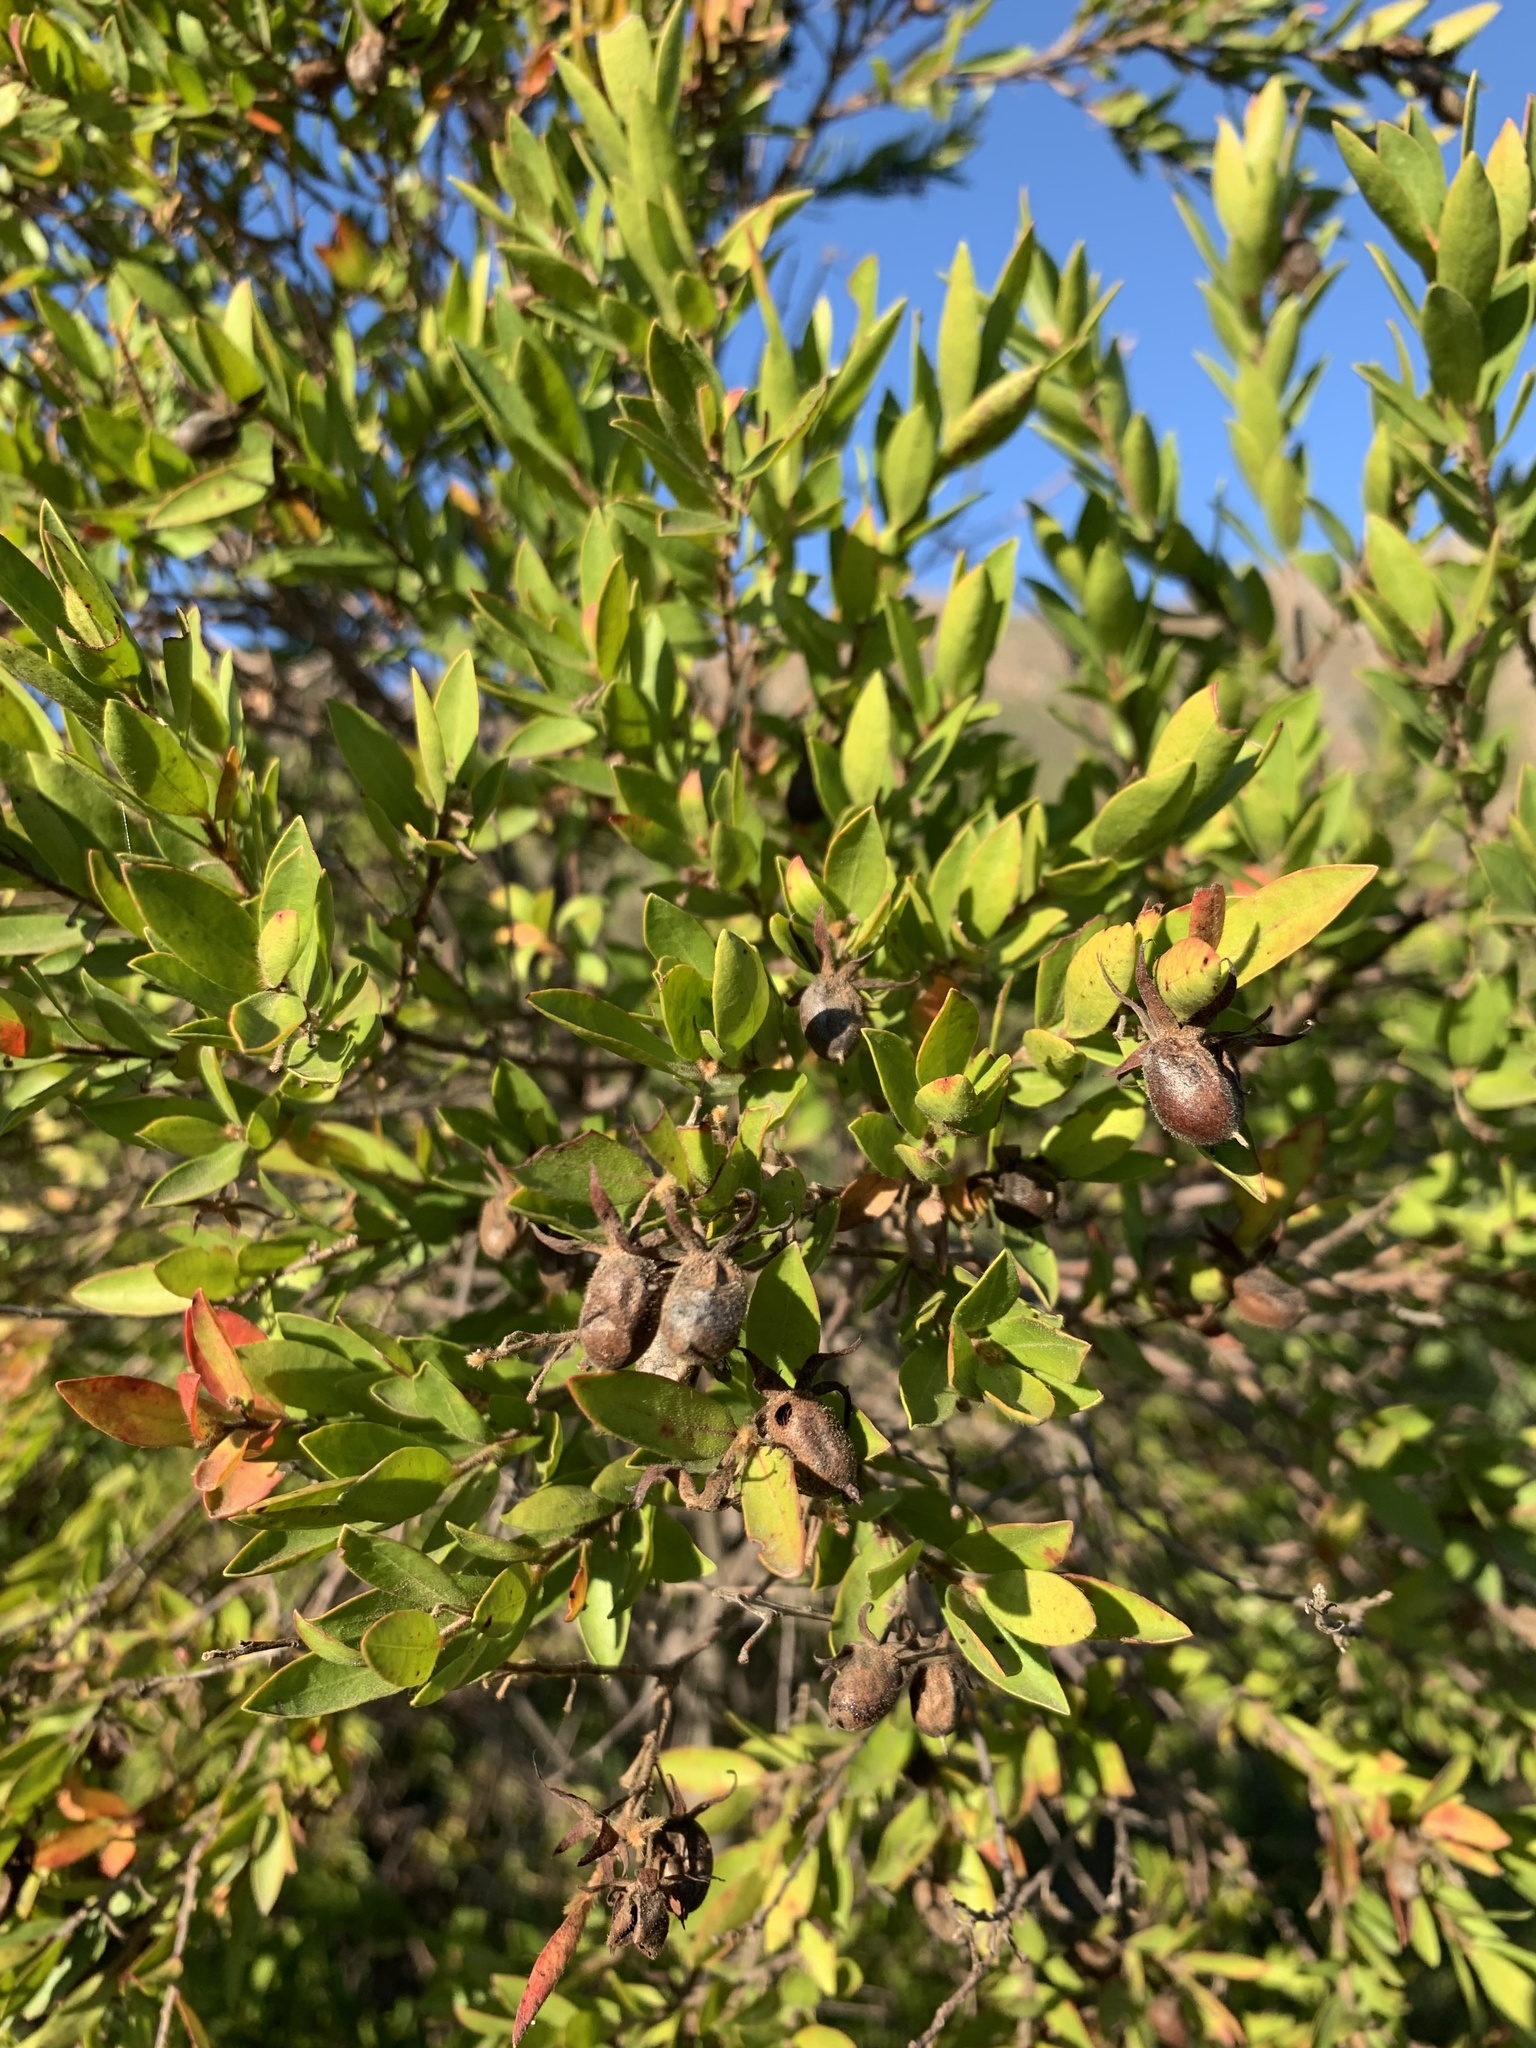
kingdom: Plantae
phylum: Tracheophyta
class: Magnoliopsida
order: Ericales
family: Ebenaceae
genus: Diospyros
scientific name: Diospyros glabra
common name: Fynbos star apple
